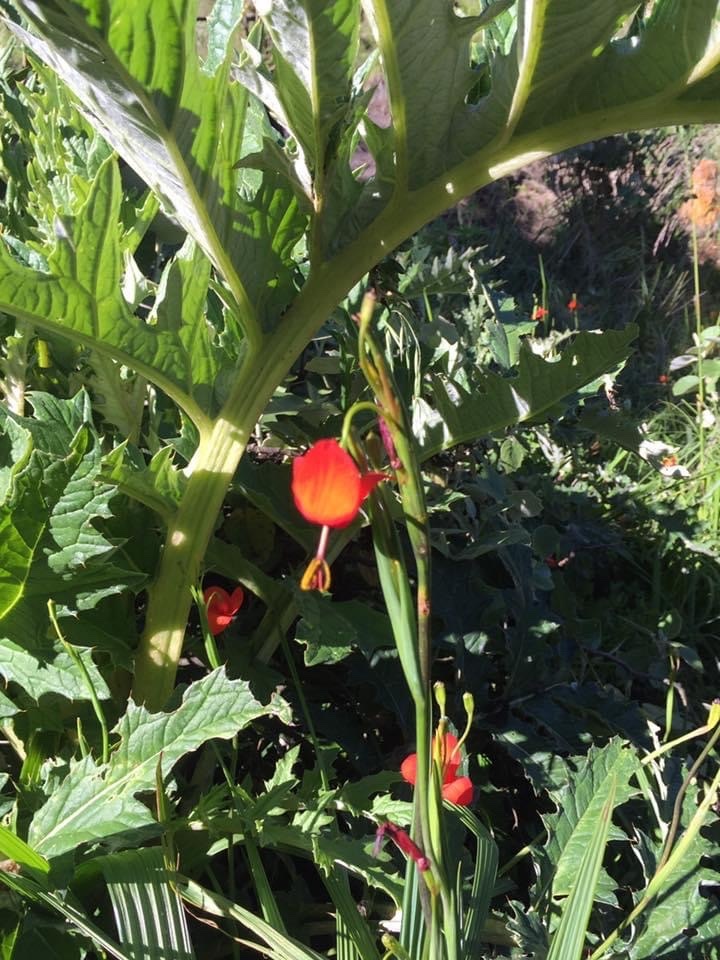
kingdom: Plantae
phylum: Tracheophyta
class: Liliopsida
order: Asparagales
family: Iridaceae
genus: Tigridia
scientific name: Tigridia immaculata
